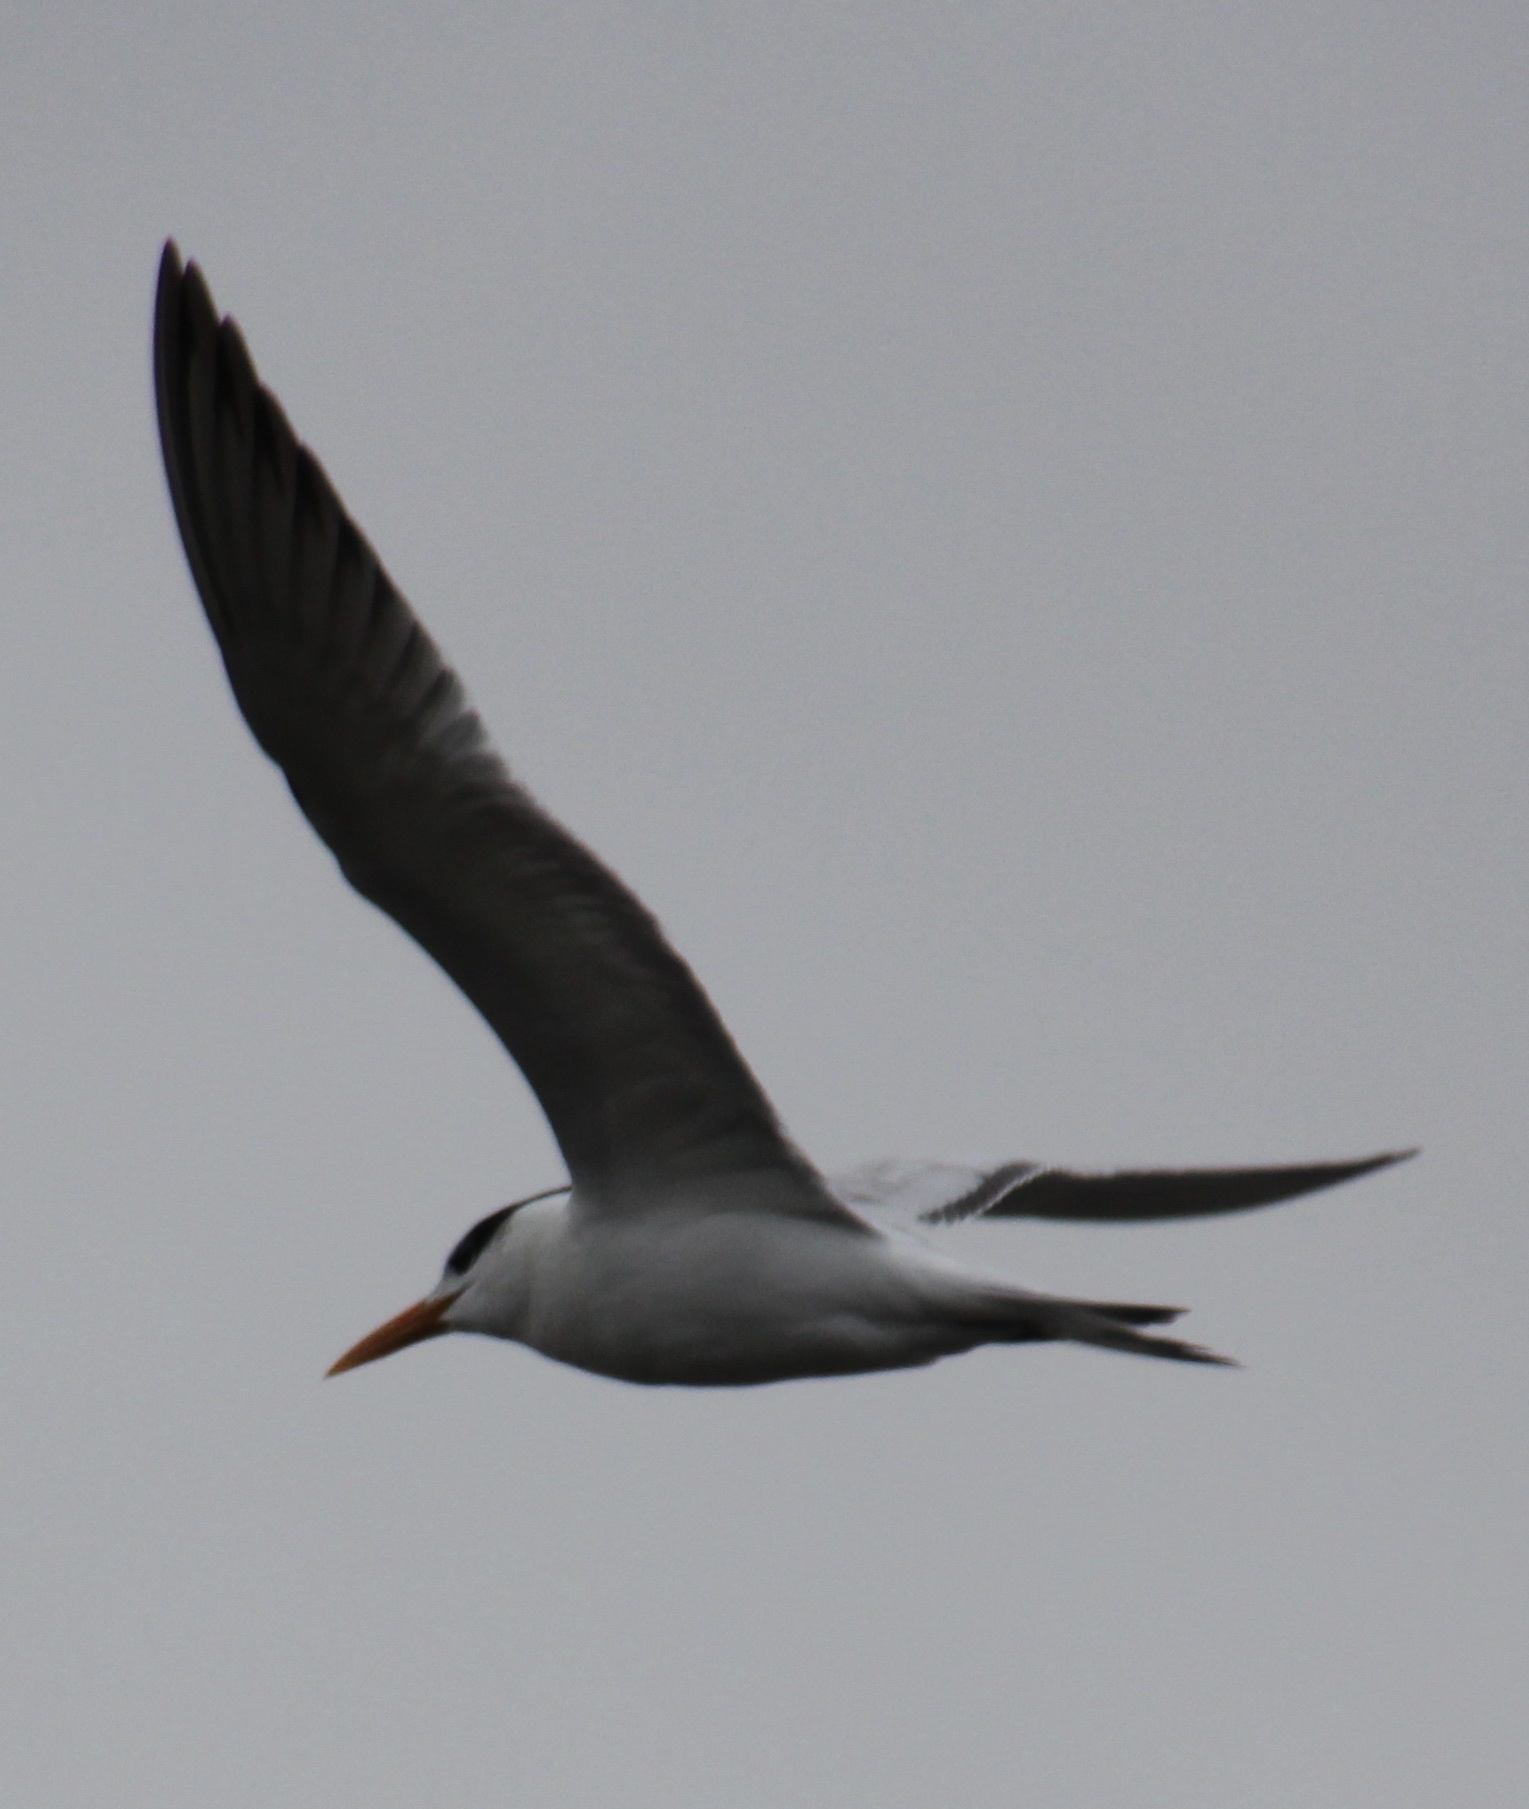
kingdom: Animalia
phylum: Chordata
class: Aves
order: Charadriiformes
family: Laridae
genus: Thalasseus
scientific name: Thalasseus maximus
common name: Royal tern
